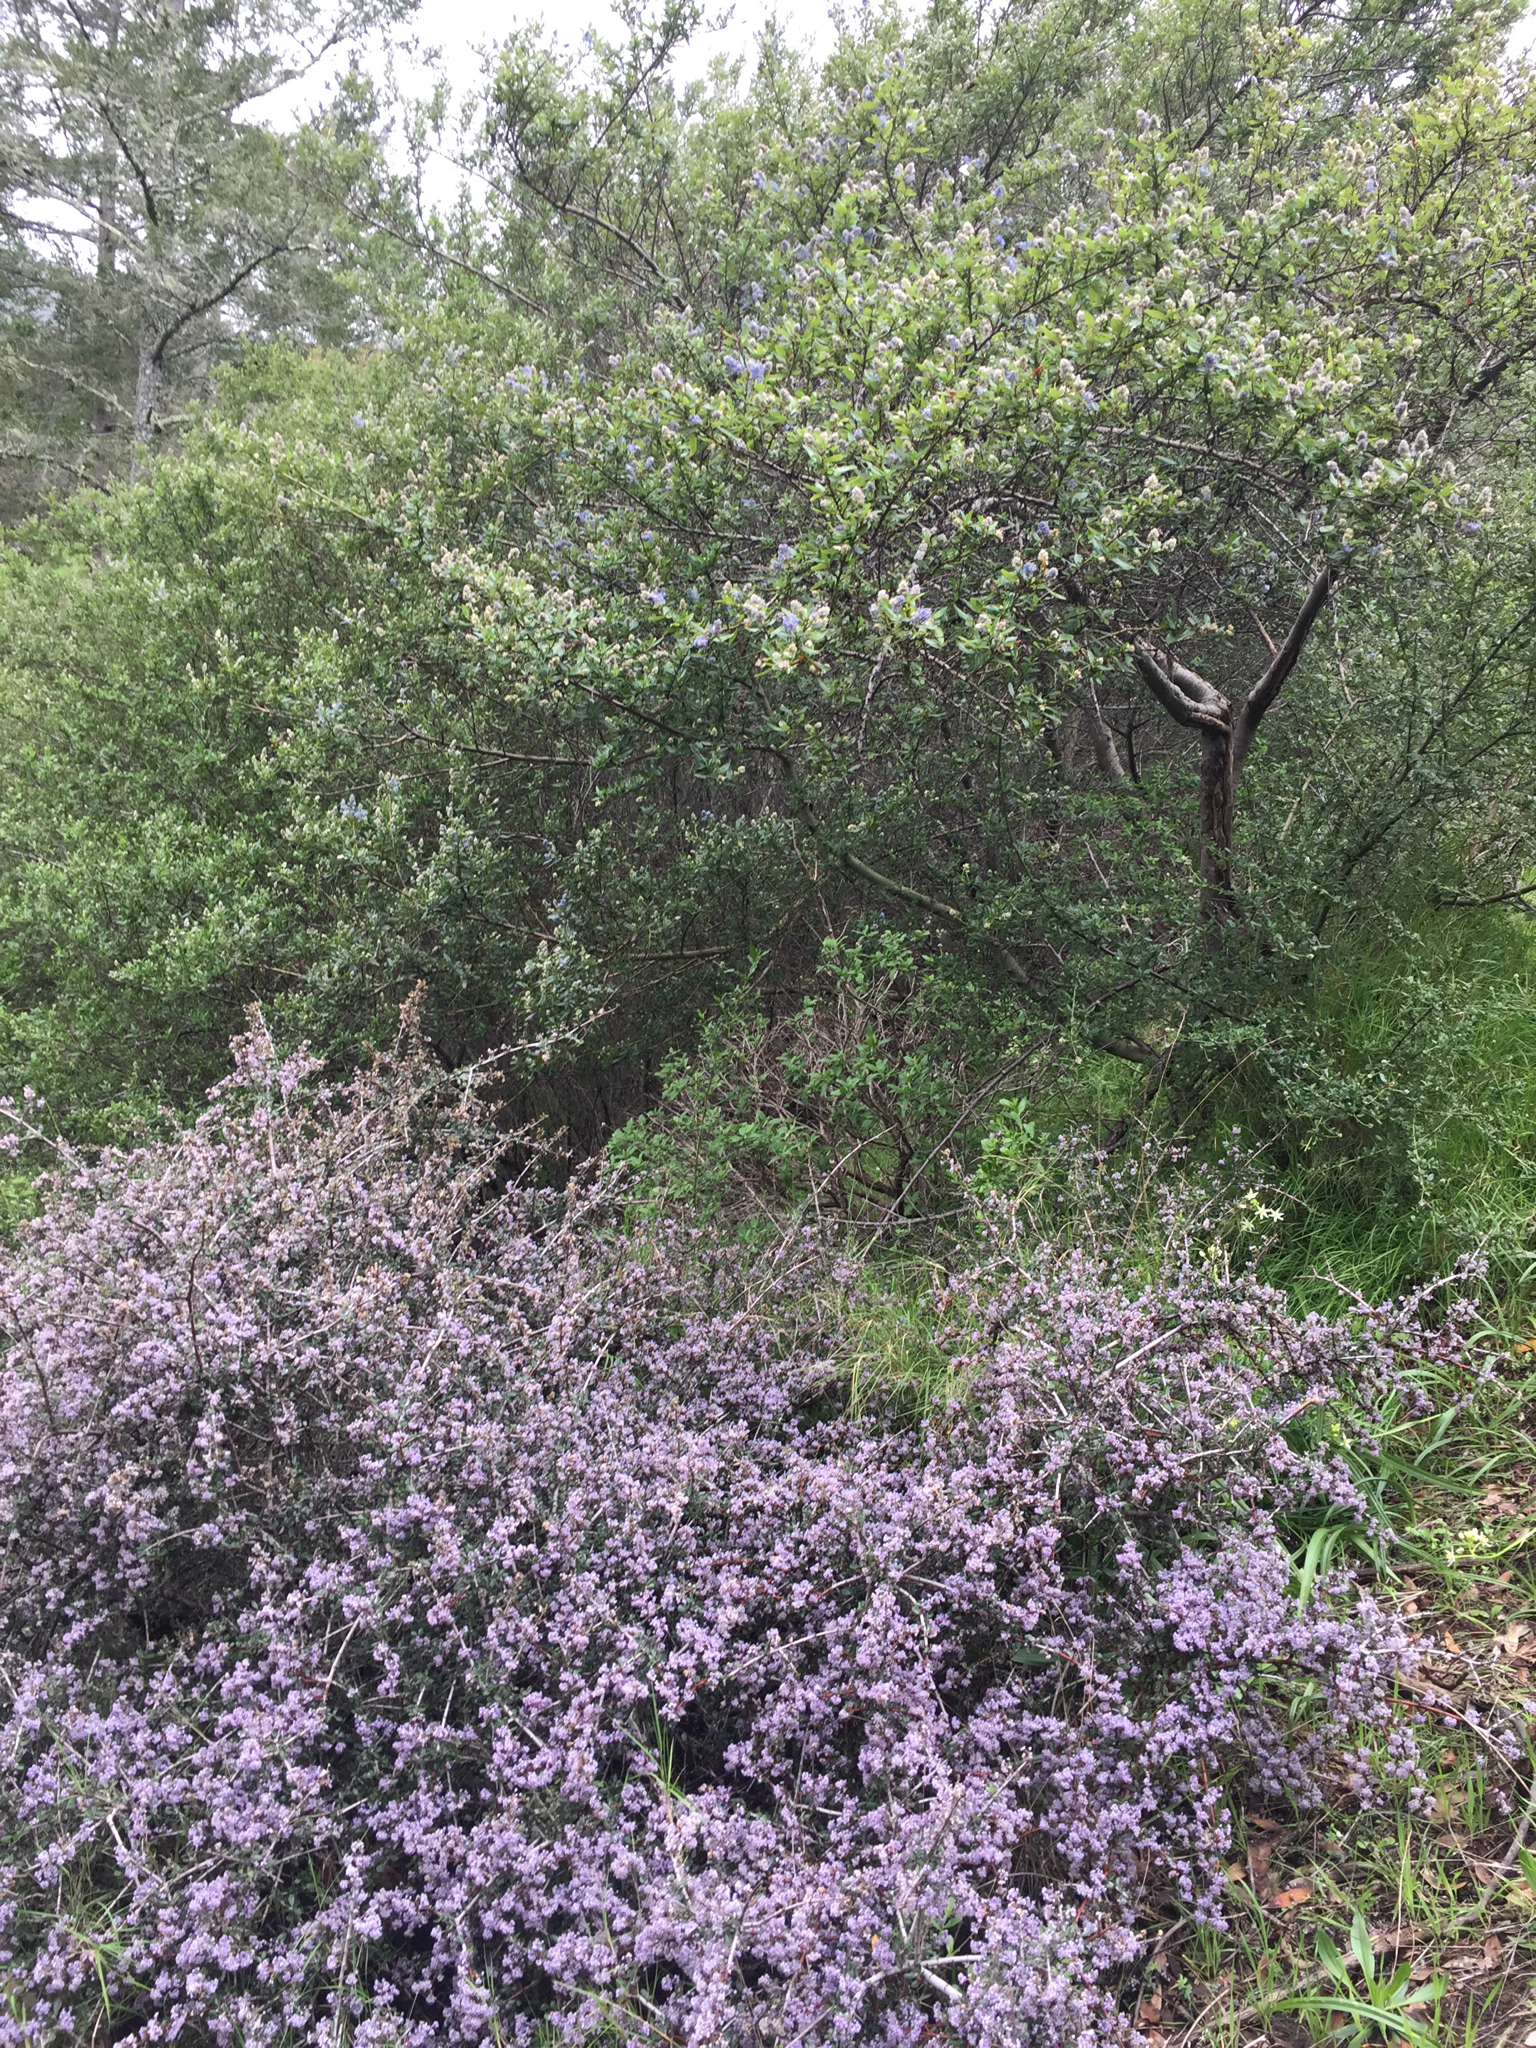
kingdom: Plantae
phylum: Tracheophyta
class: Magnoliopsida
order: Rosales
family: Rhamnaceae
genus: Ceanothus
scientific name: Ceanothus cuneatus
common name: Cuneate ceanothus
